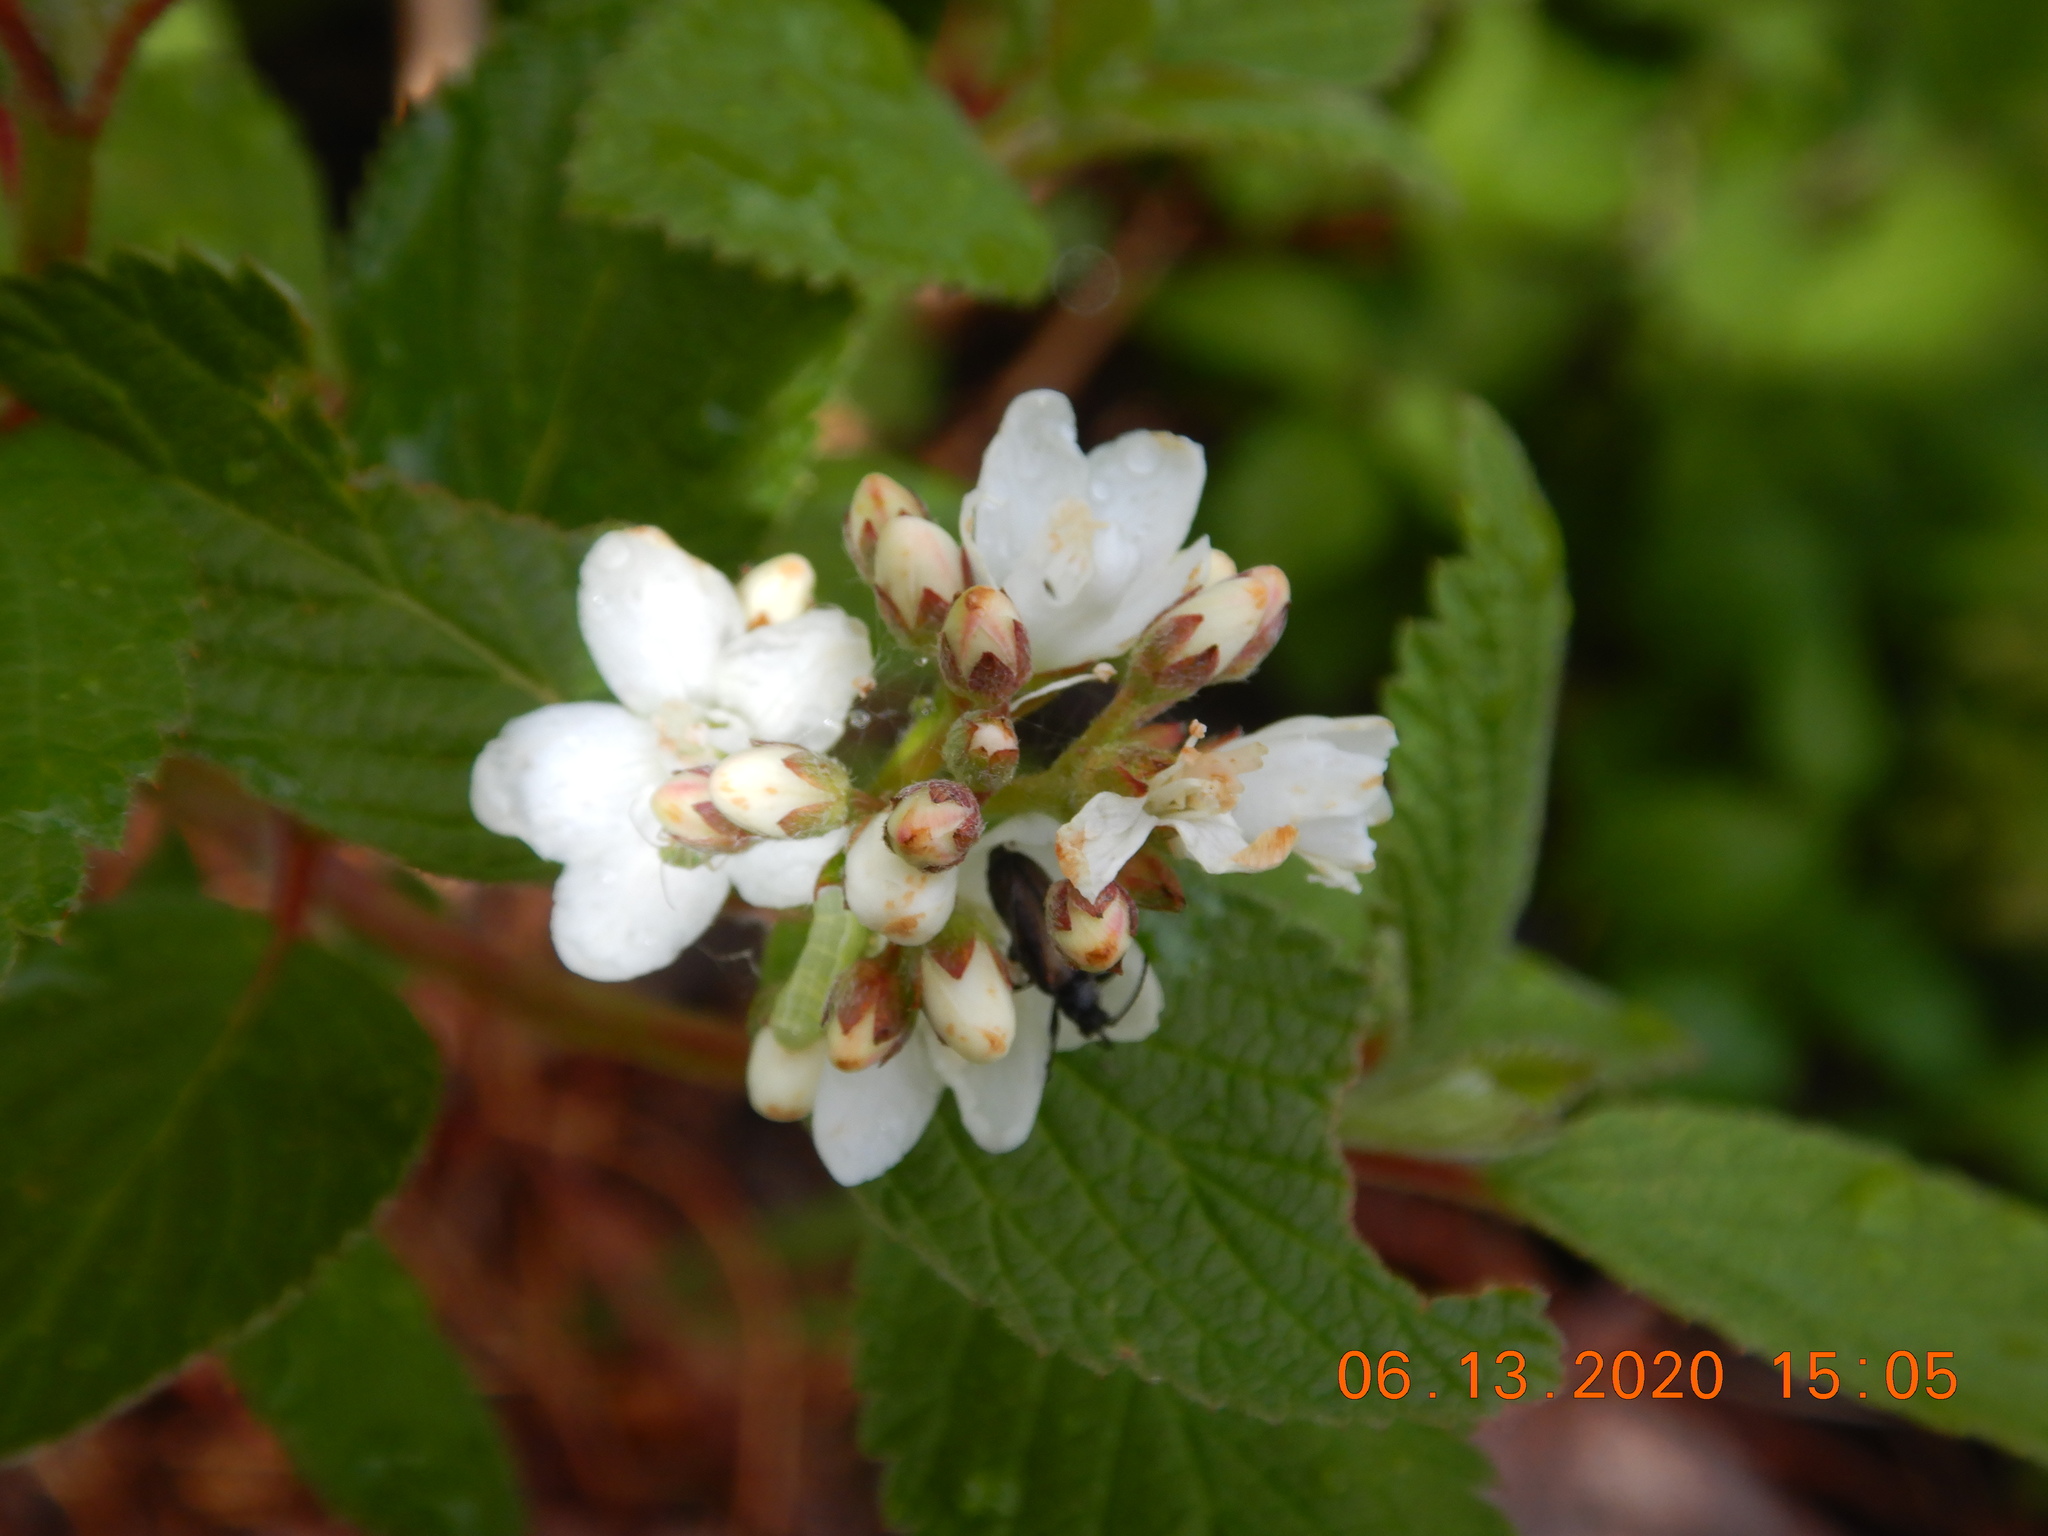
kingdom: Plantae
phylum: Tracheophyta
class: Magnoliopsida
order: Cornales
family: Hydrangeaceae
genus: Jamesia
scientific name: Jamesia americana
